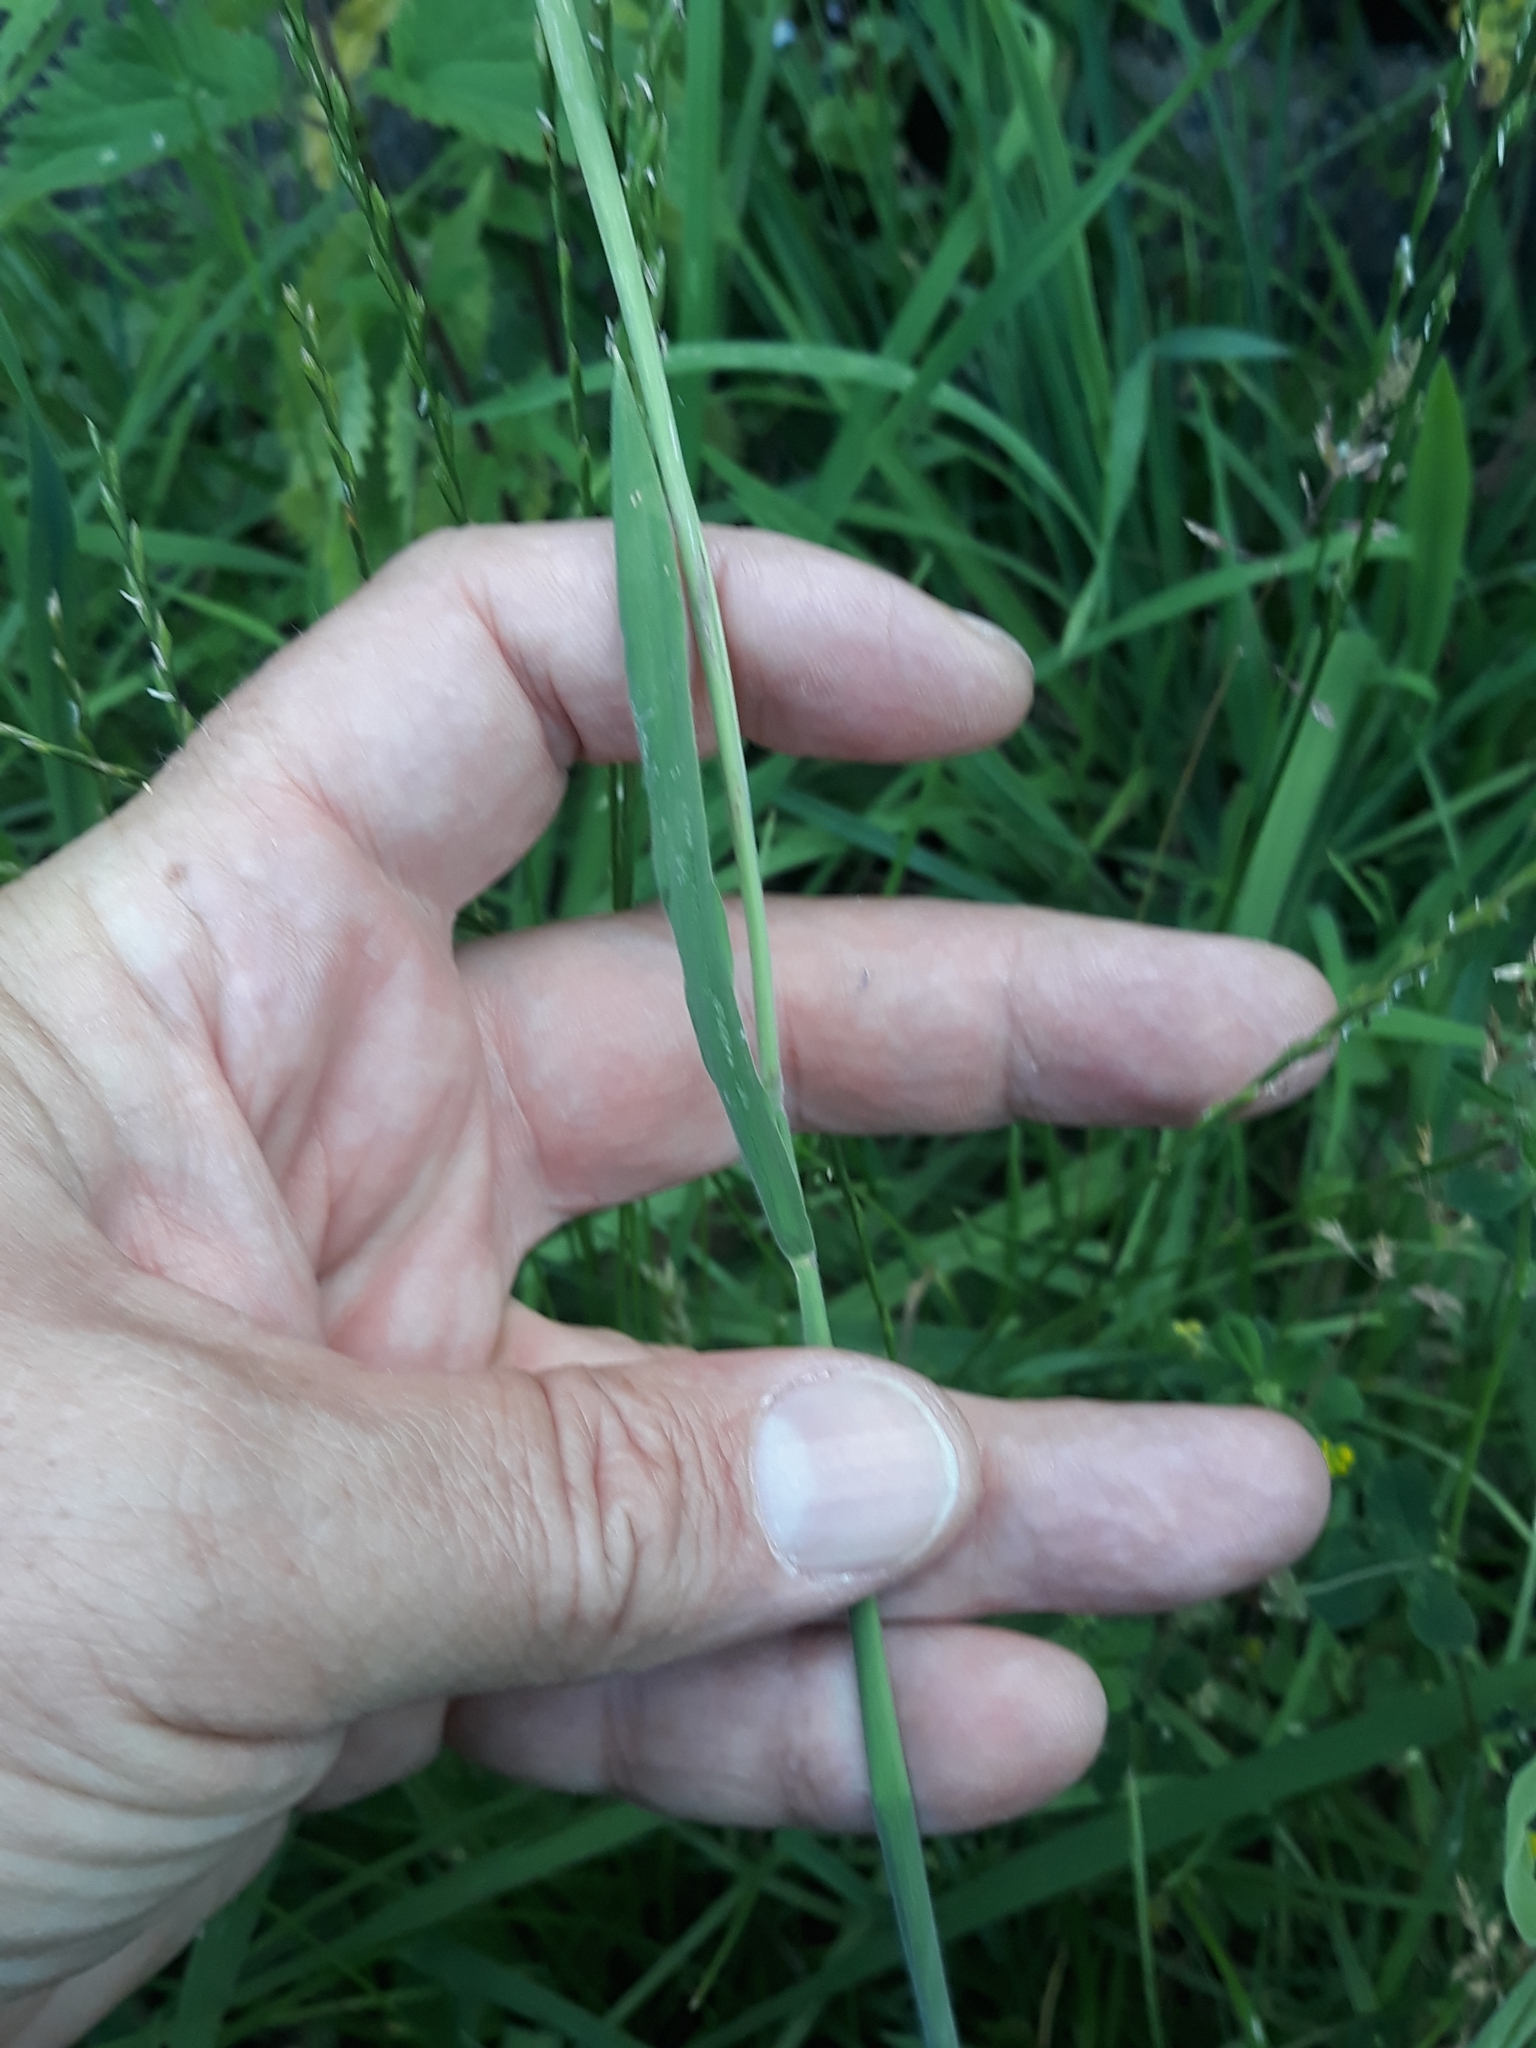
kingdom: Plantae
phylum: Tracheophyta
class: Liliopsida
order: Poales
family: Poaceae
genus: Holcus
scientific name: Holcus lanatus
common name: Yorkshire-fog
